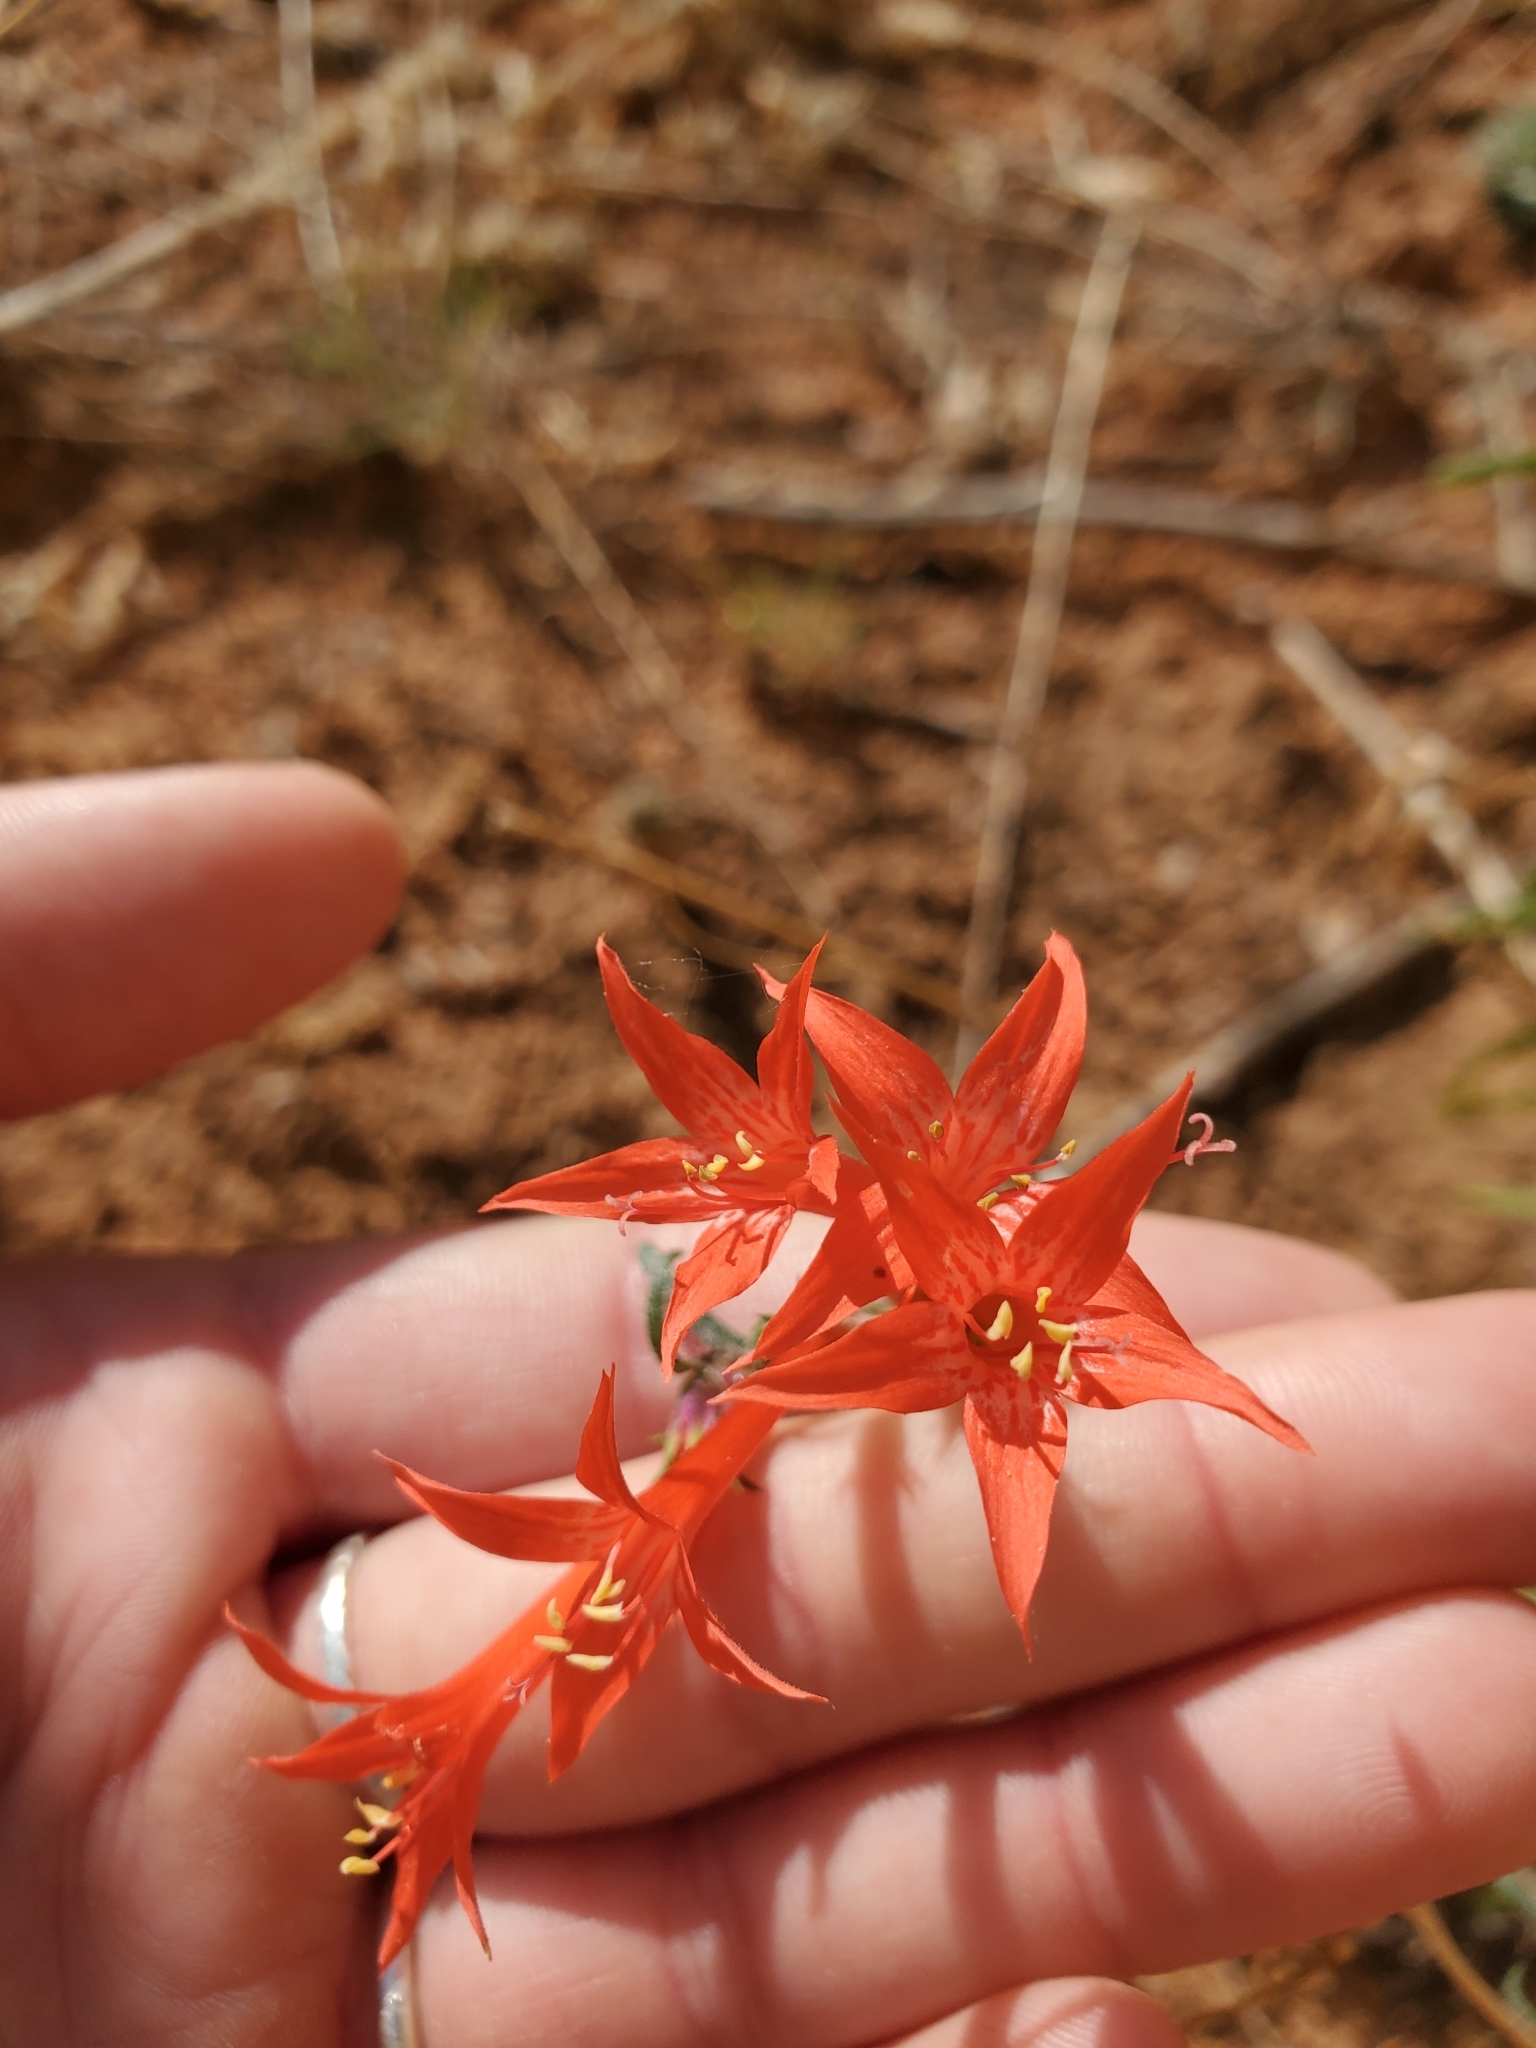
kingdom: Plantae
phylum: Tracheophyta
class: Magnoliopsida
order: Ericales
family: Polemoniaceae
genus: Ipomopsis
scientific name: Ipomopsis aggregata
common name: Scarlet gilia
